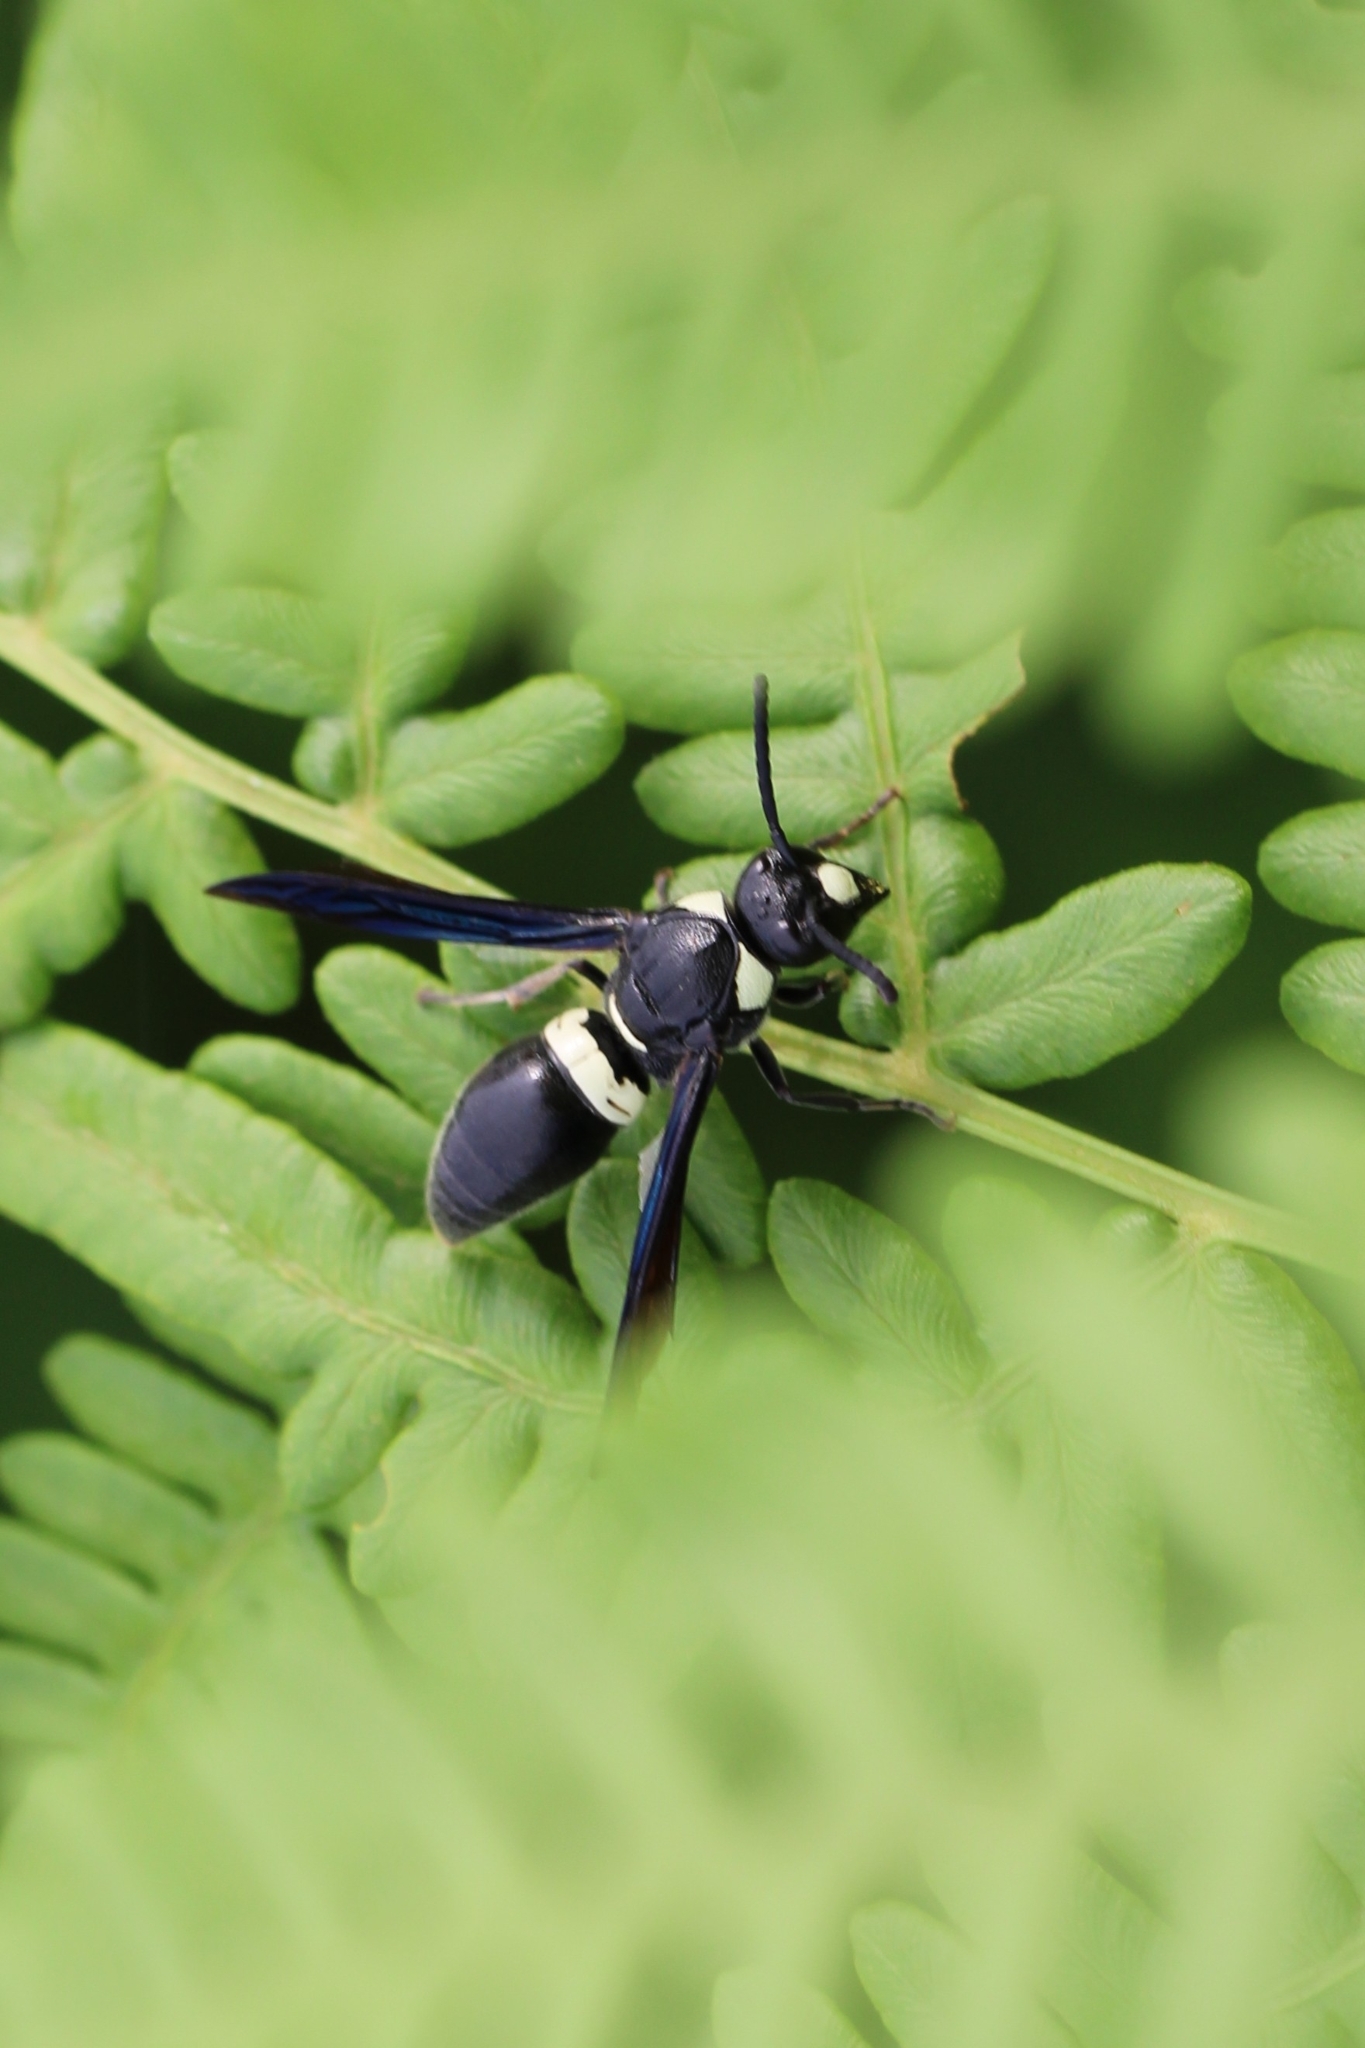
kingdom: Animalia
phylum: Arthropoda
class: Insecta
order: Hymenoptera
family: Eumenidae
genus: Monobia
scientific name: Monobia quadridens
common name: Four-toothed mason wasp
